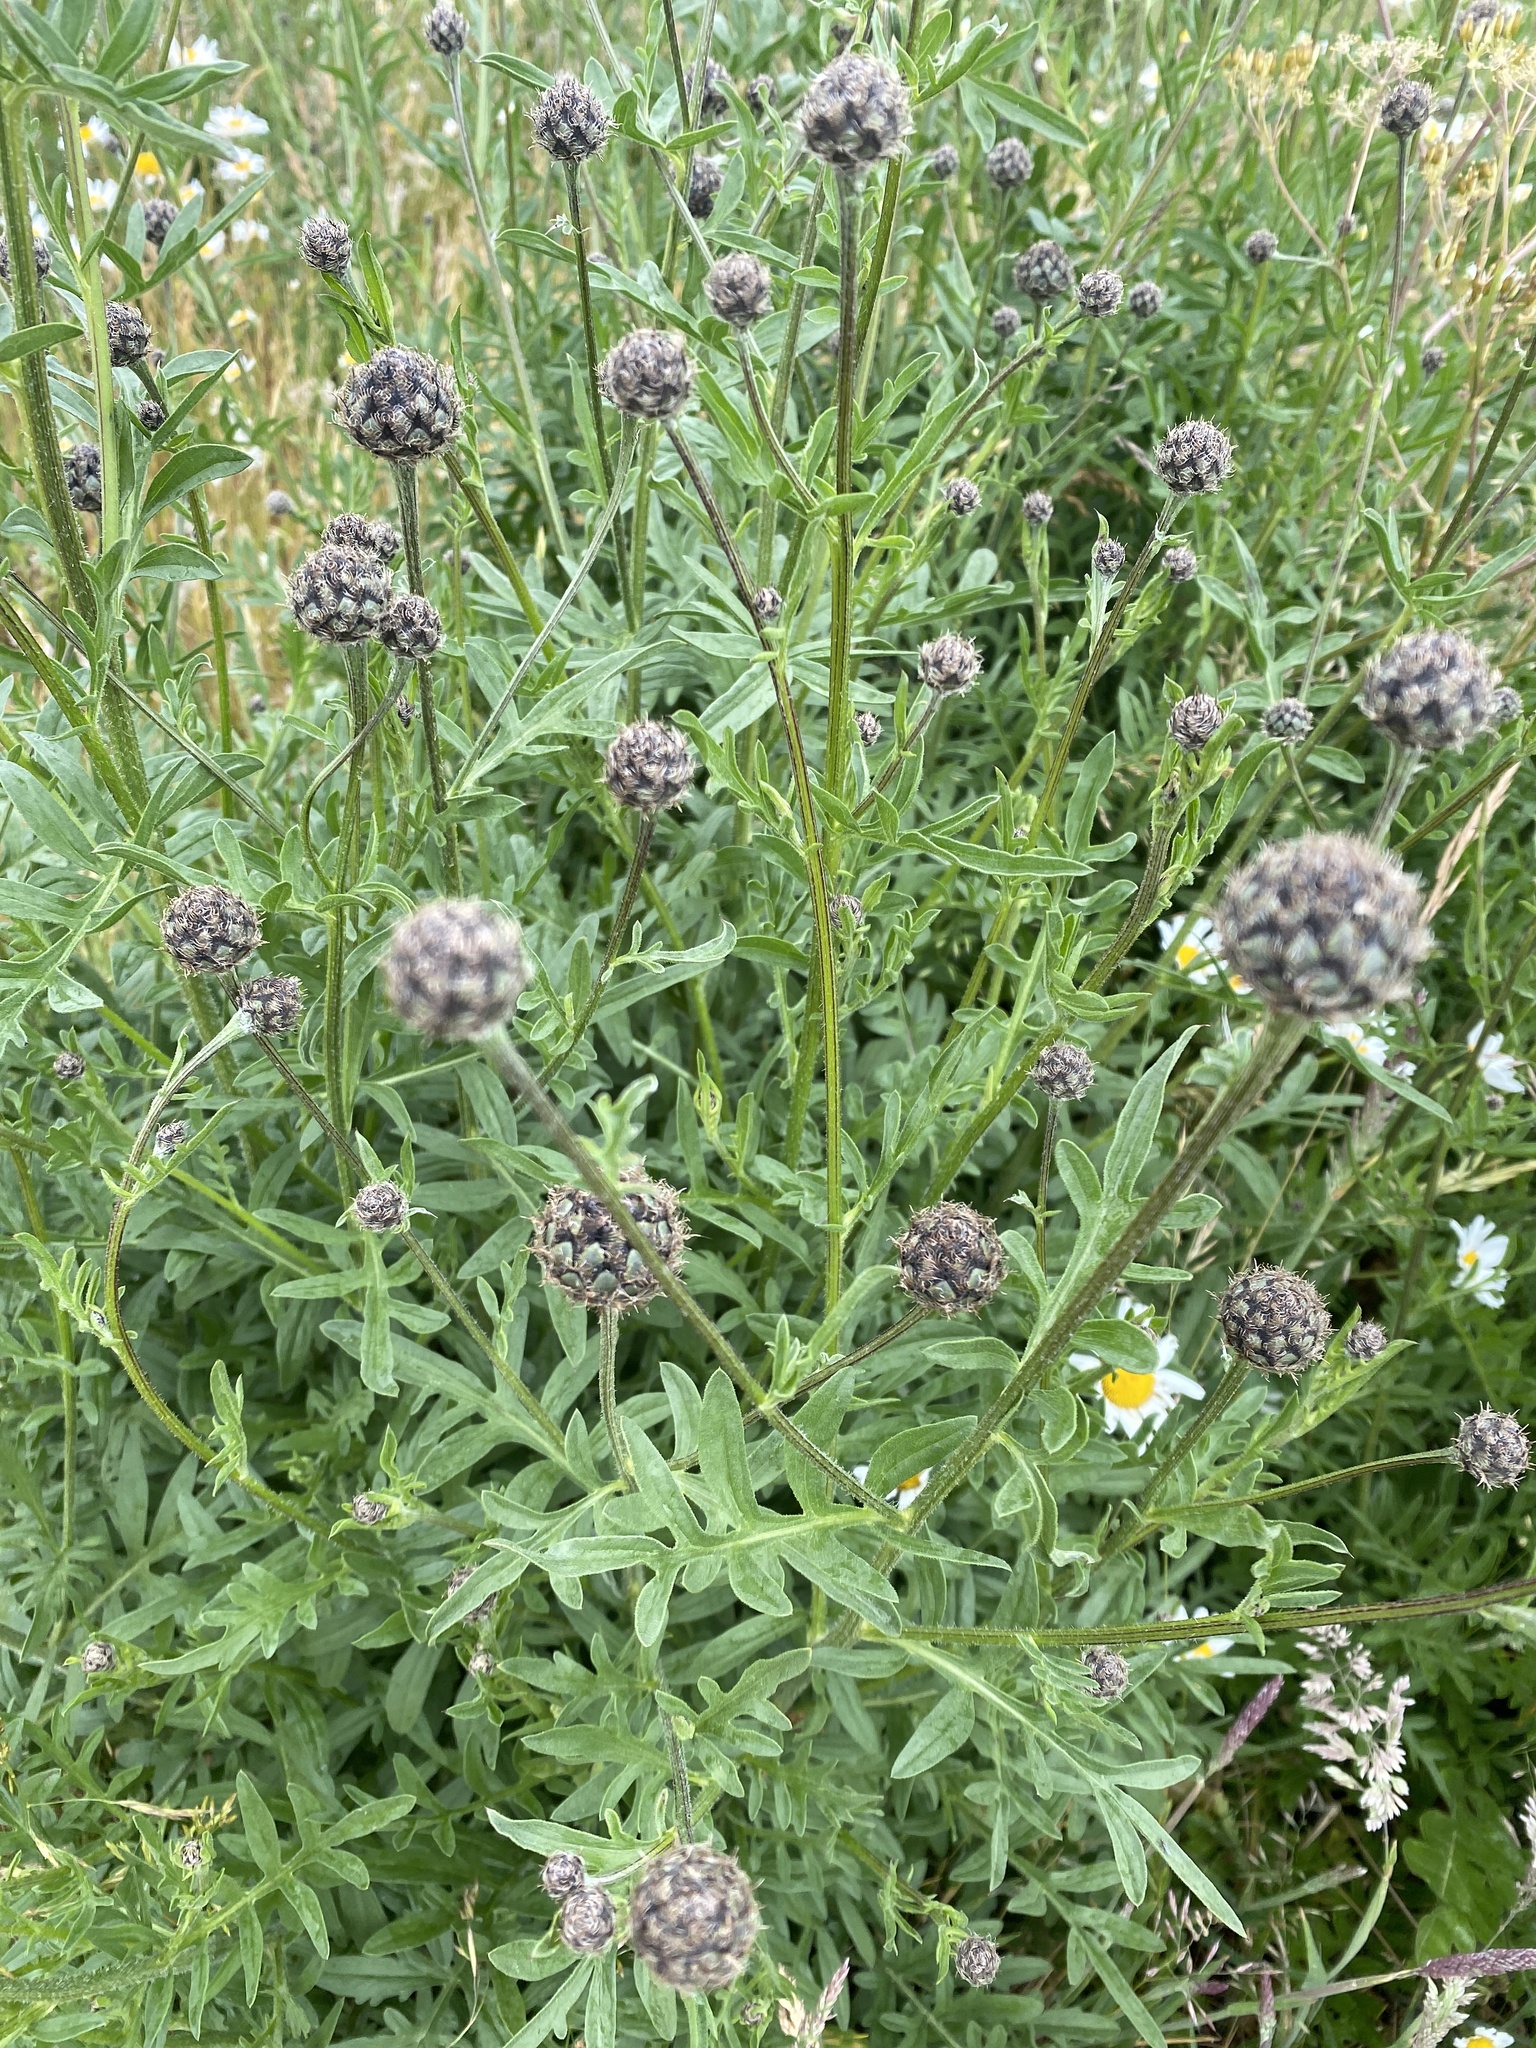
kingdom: Plantae
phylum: Tracheophyta
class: Magnoliopsida
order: Asterales
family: Asteraceae
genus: Centaurea
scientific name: Centaurea scabiosa
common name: Greater knapweed
